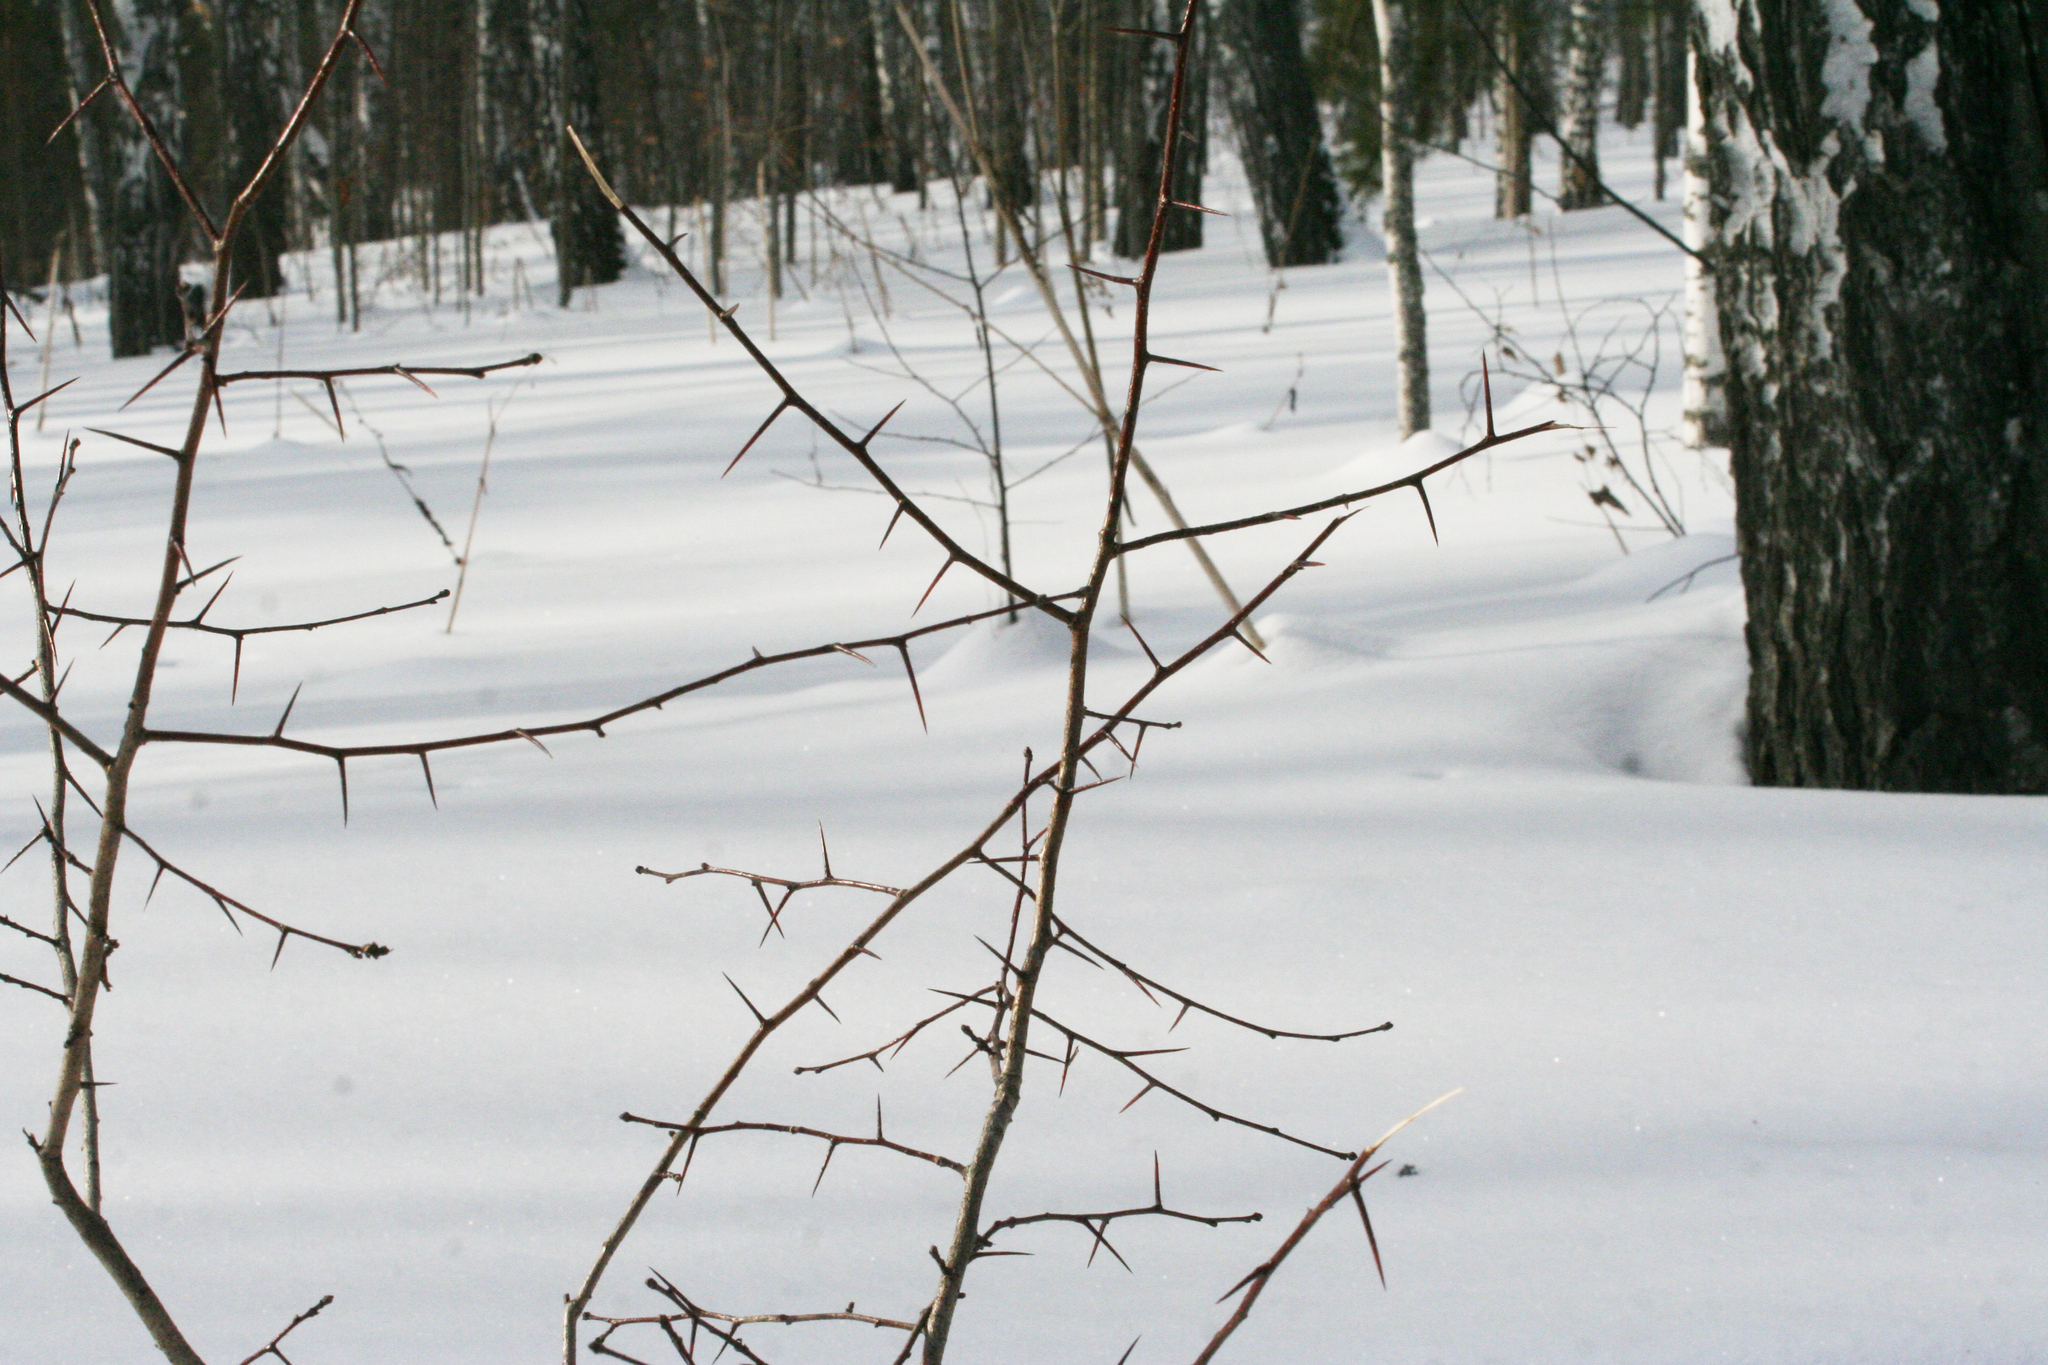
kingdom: Plantae
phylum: Tracheophyta
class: Magnoliopsida
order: Rosales
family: Rosaceae
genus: Crataegus
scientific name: Crataegus sanguinea
